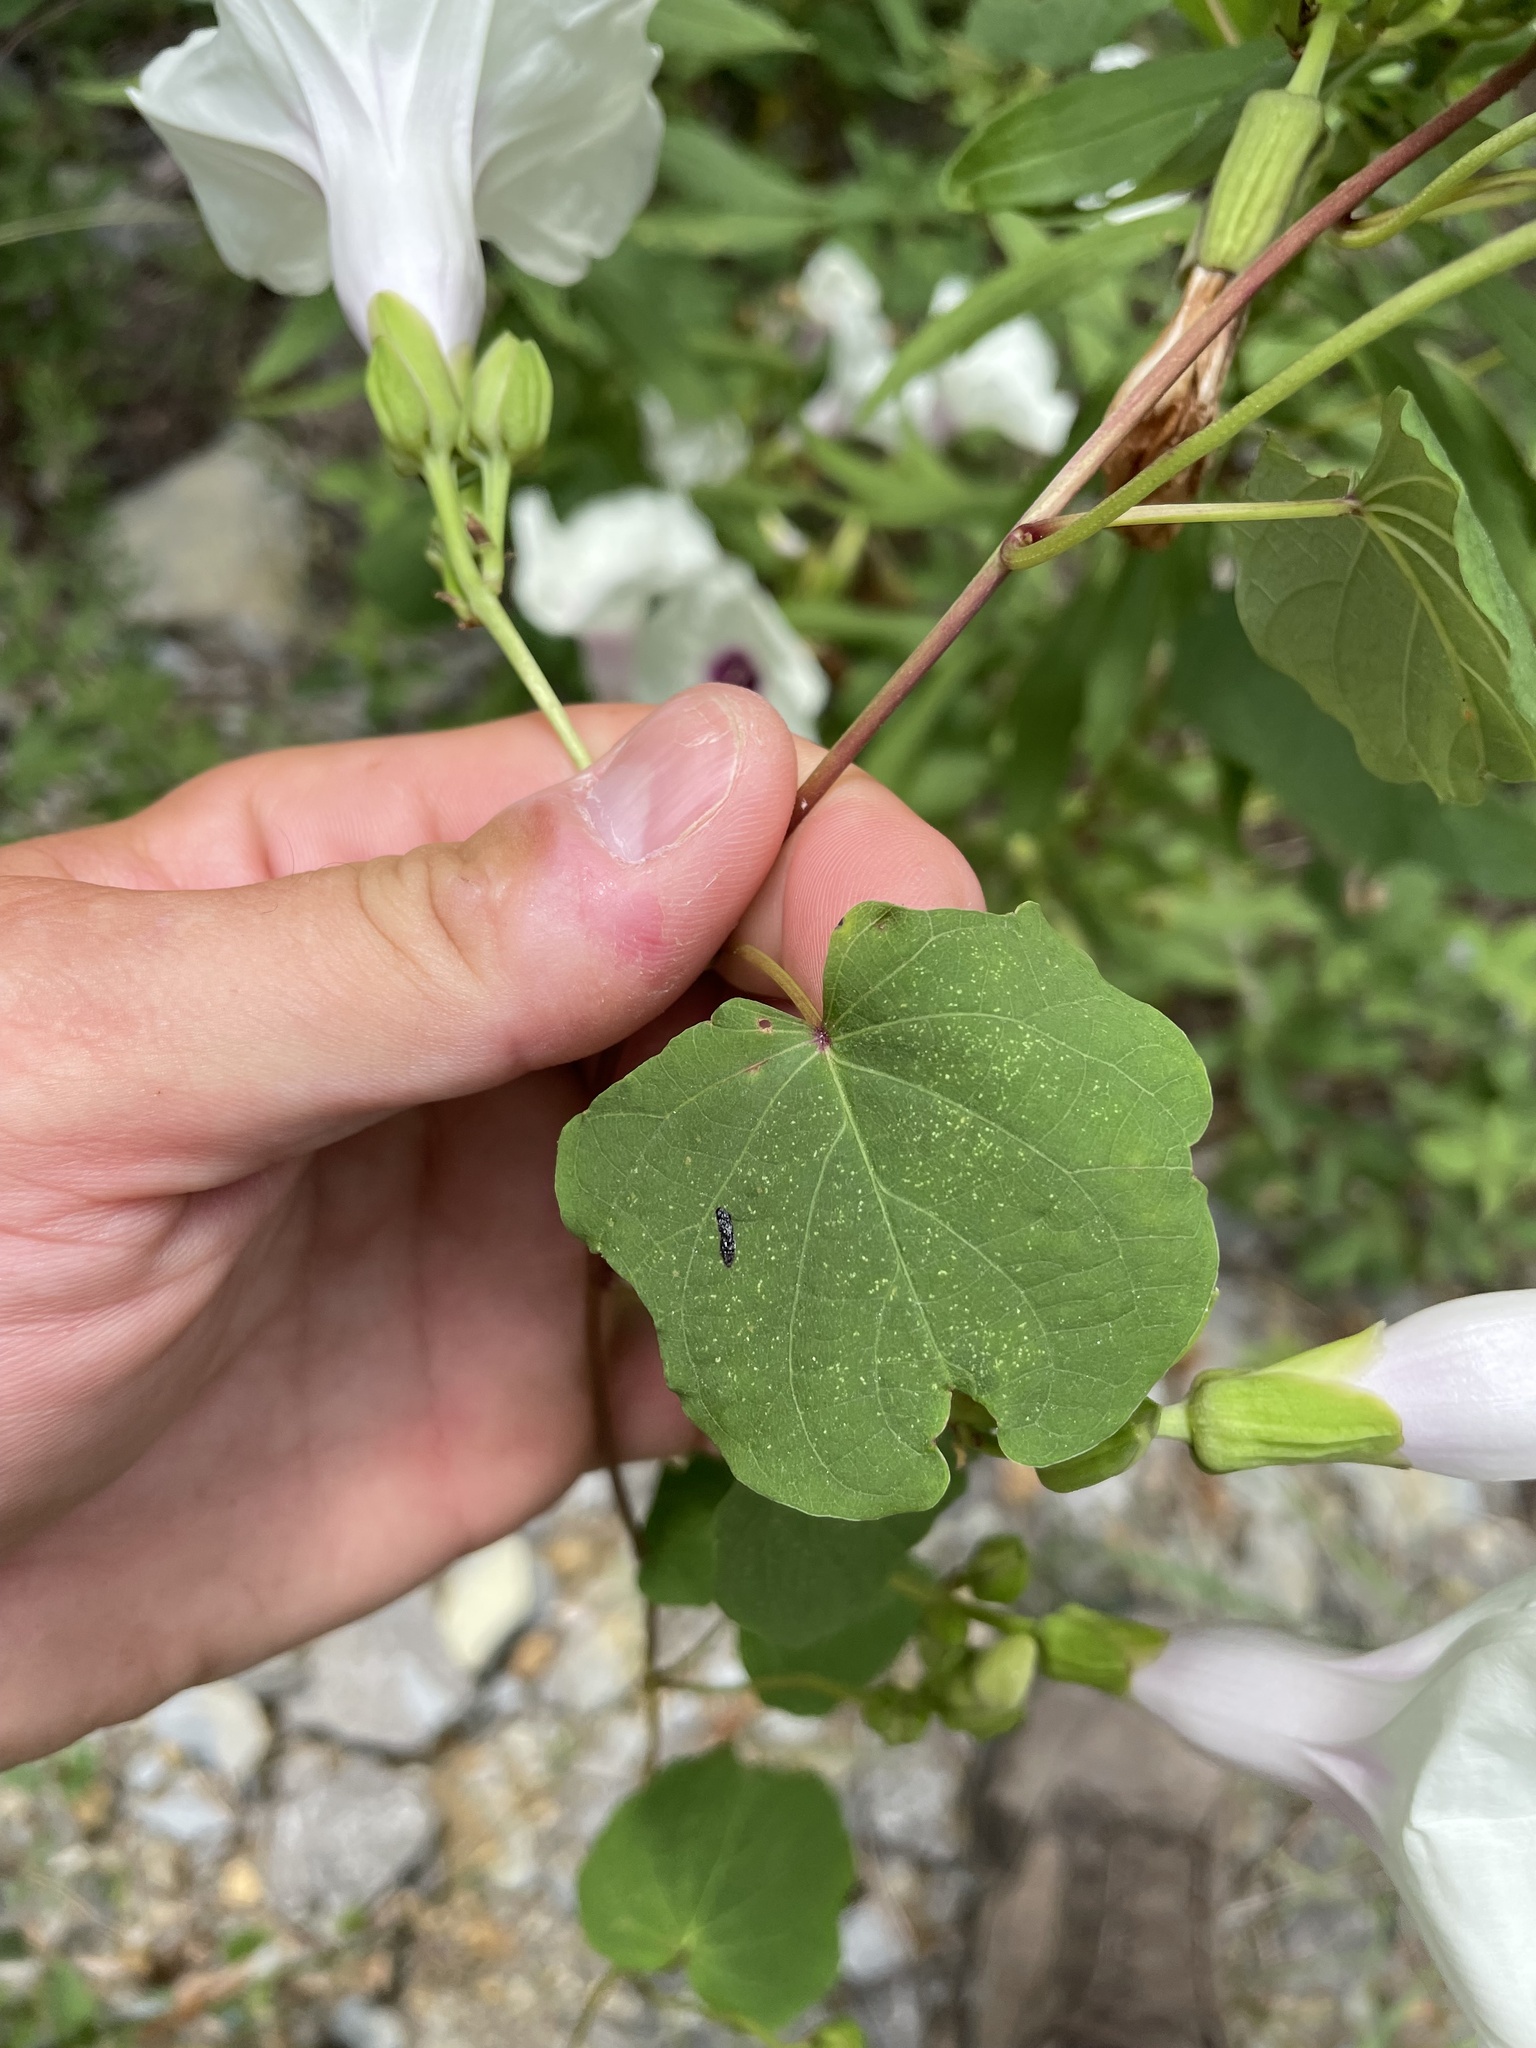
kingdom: Plantae
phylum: Tracheophyta
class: Magnoliopsida
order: Solanales
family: Convolvulaceae
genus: Ipomoea
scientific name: Ipomoea pandurata
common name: Man-of-the-earth
